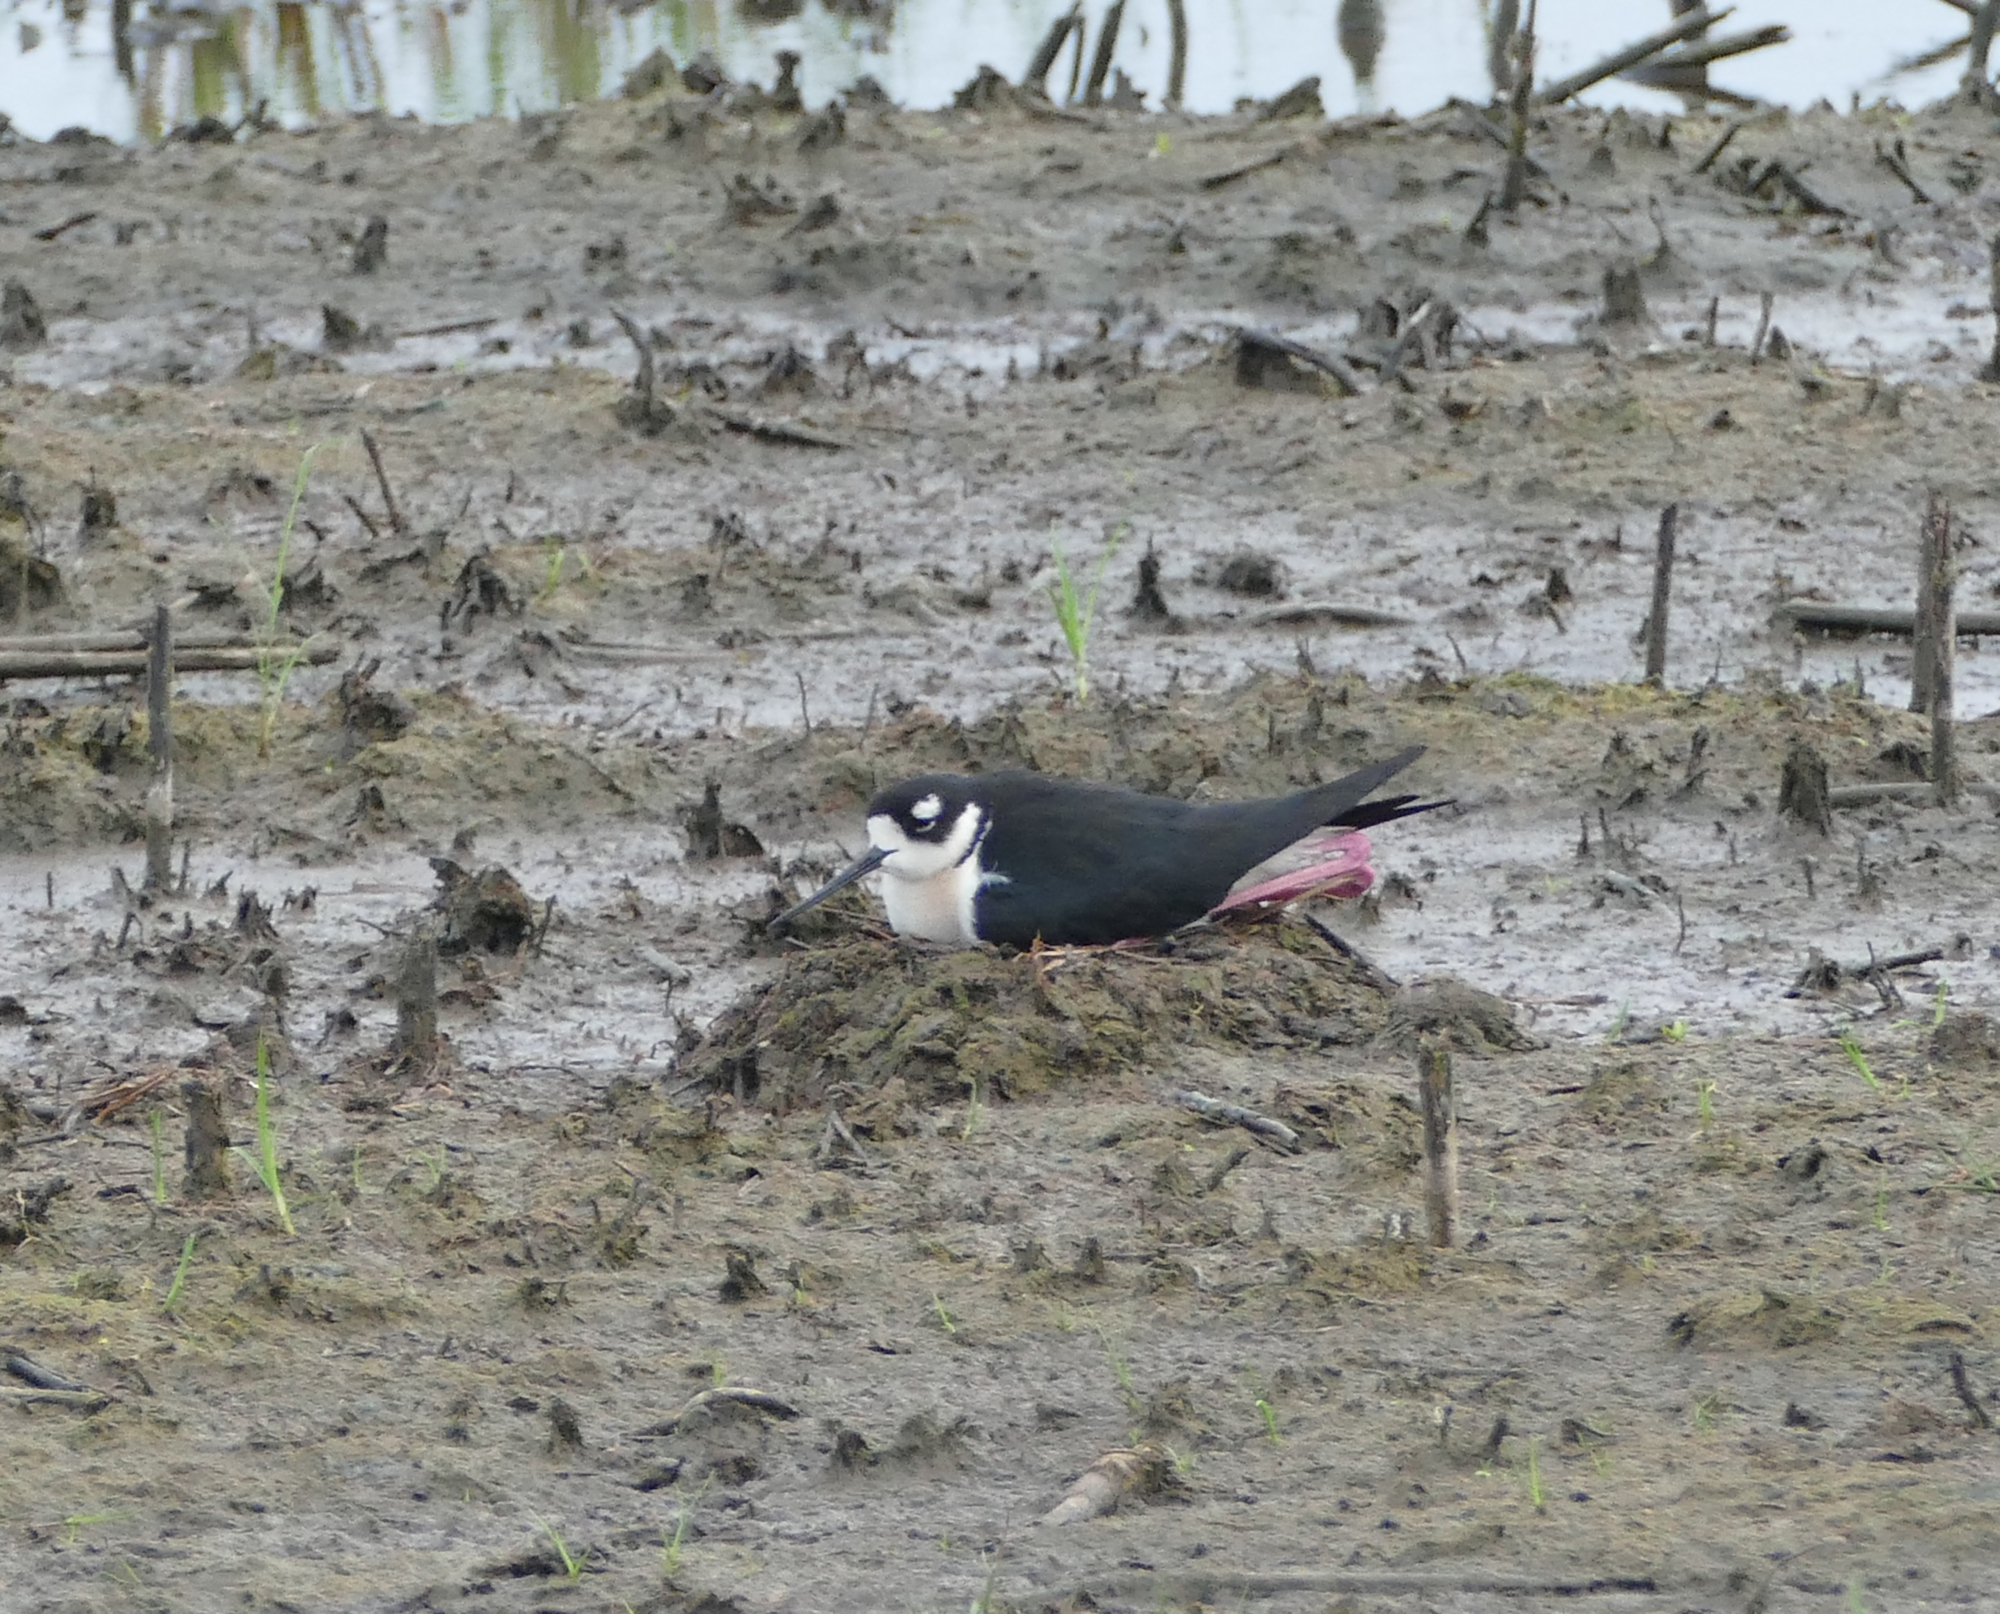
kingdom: Animalia
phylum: Chordata
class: Aves
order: Charadriiformes
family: Recurvirostridae
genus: Himantopus
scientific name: Himantopus mexicanus
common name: Black-necked stilt
